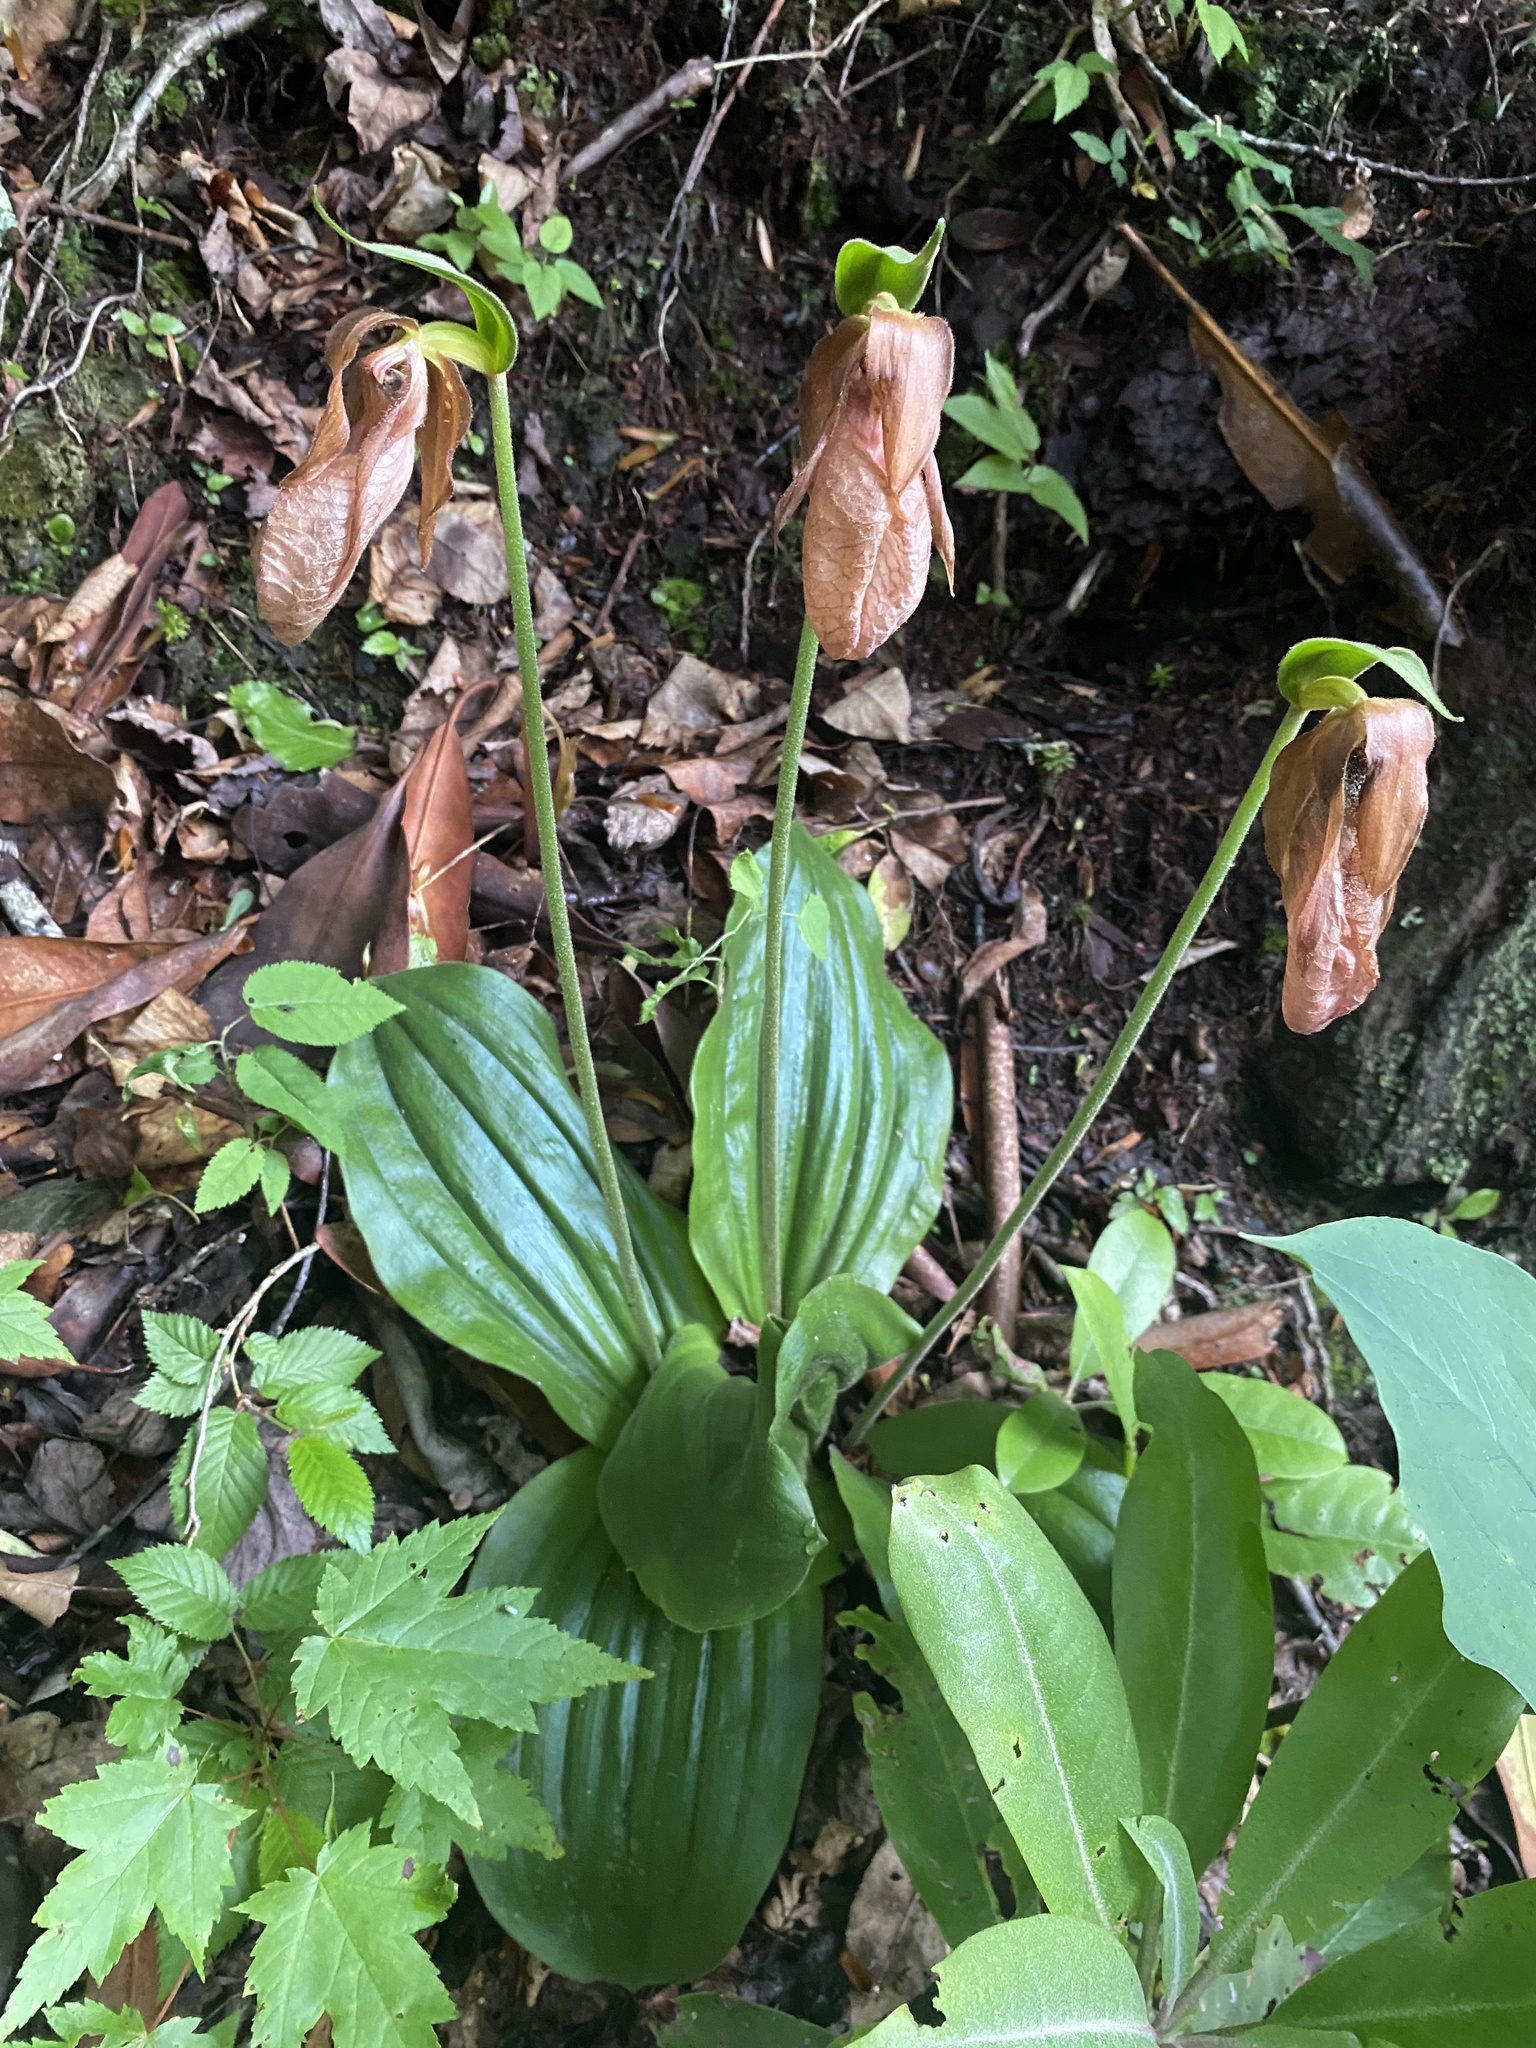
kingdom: Plantae
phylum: Tracheophyta
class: Liliopsida
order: Asparagales
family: Orchidaceae
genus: Cypripedium
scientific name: Cypripedium acaule
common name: Pink lady's-slipper
